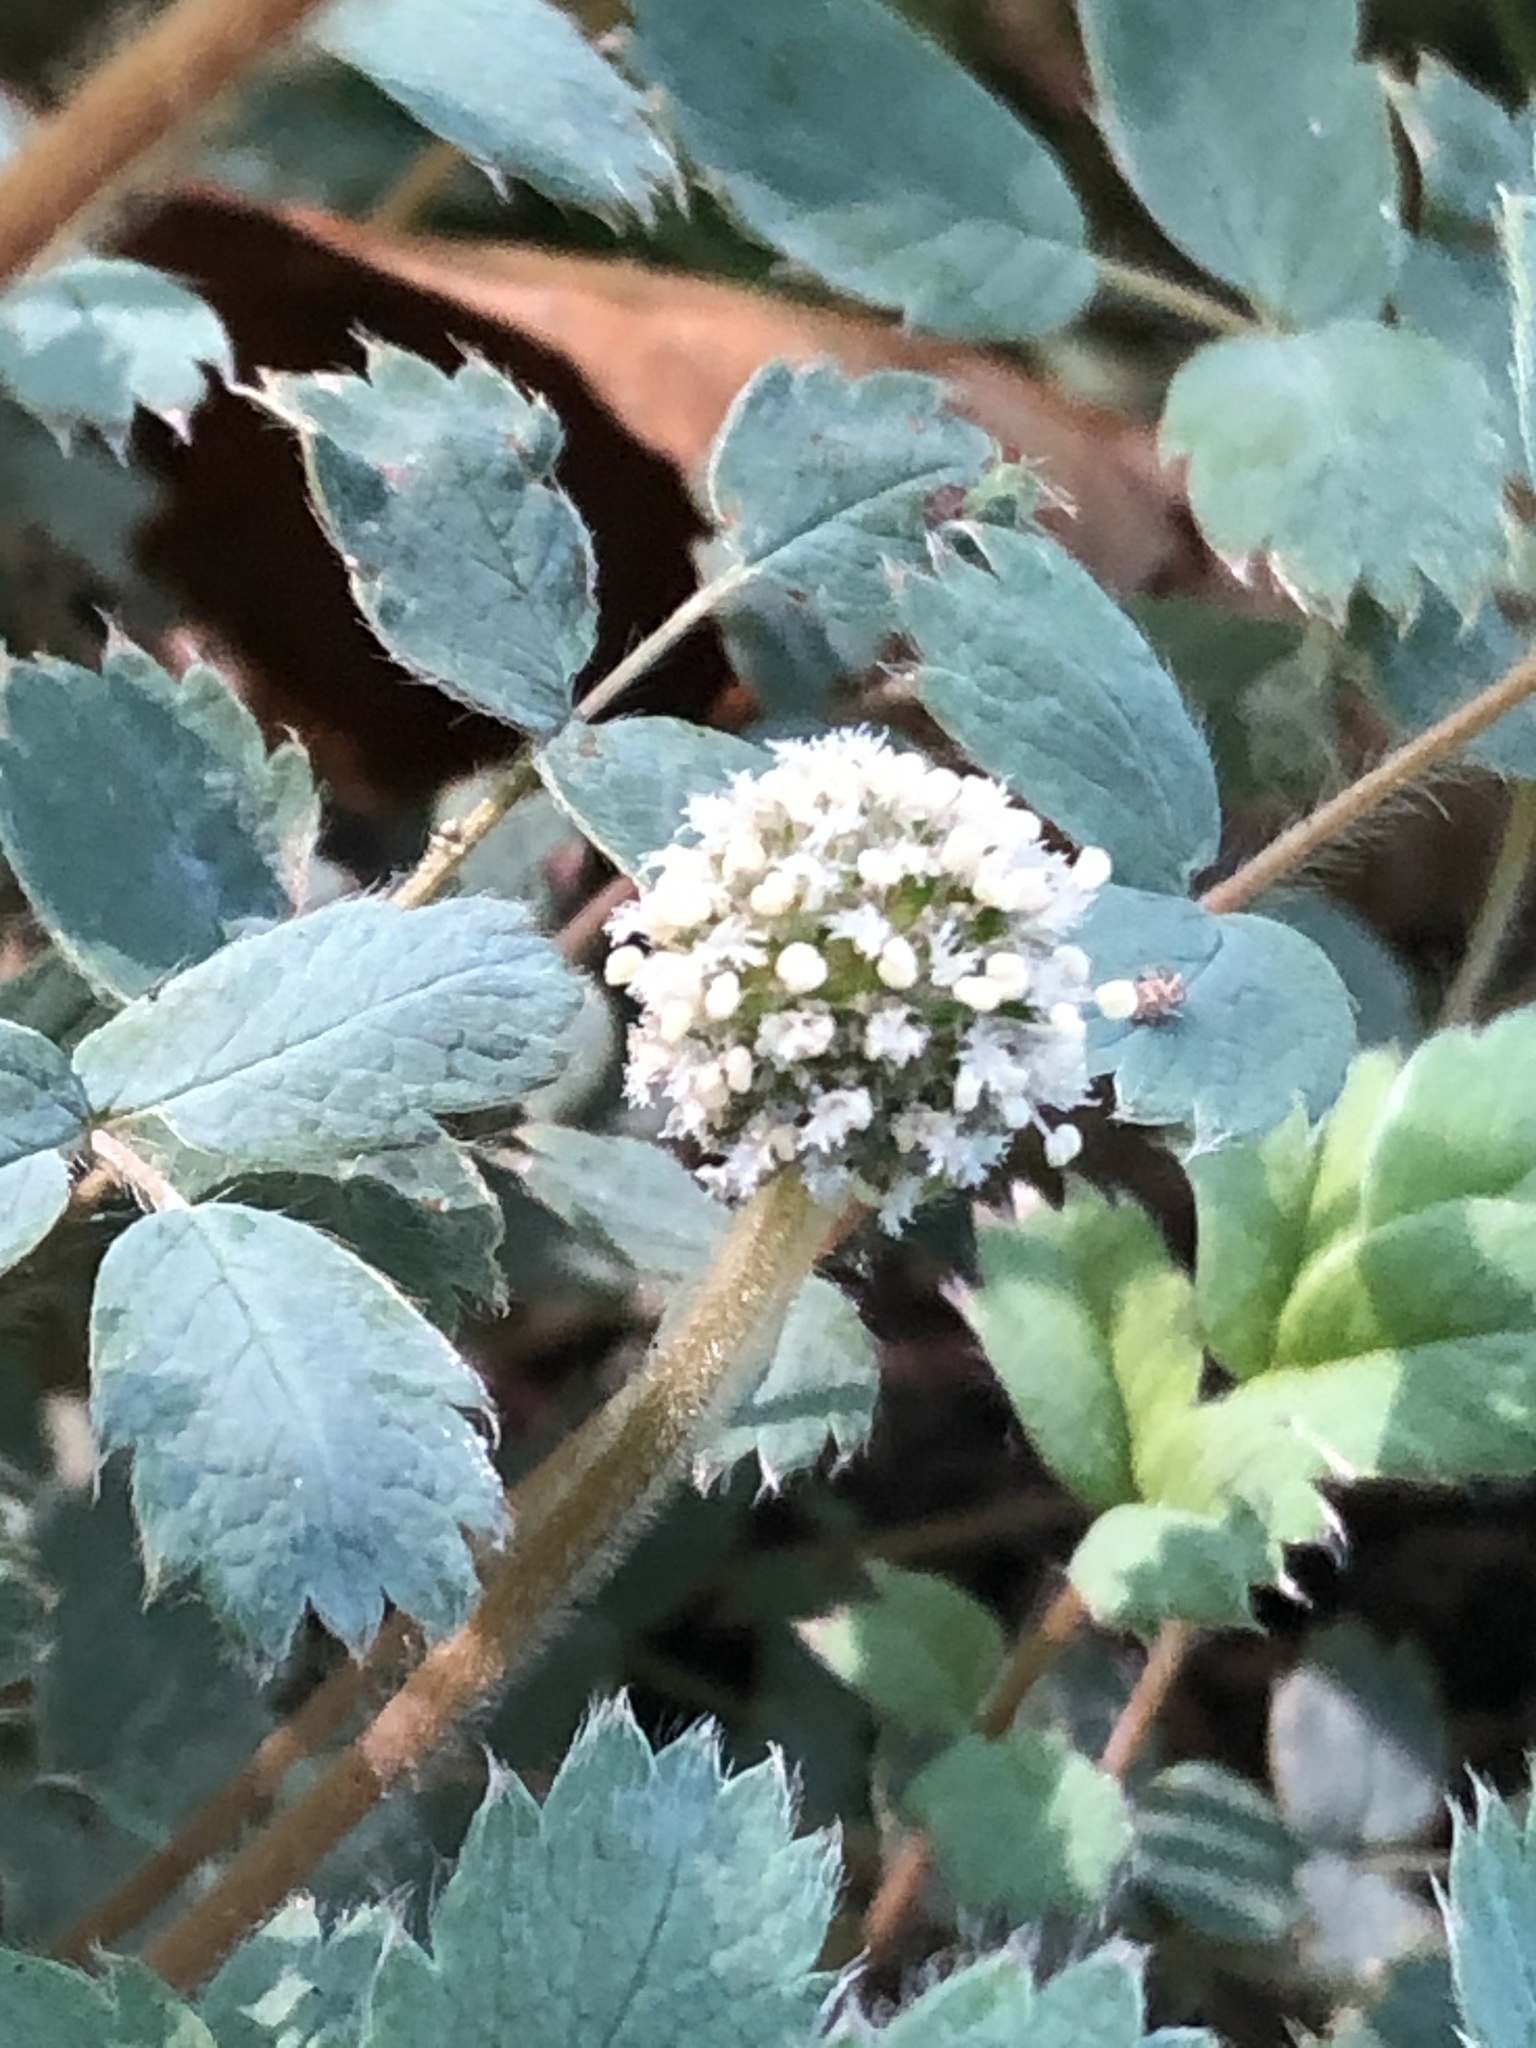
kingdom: Plantae
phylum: Tracheophyta
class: Magnoliopsida
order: Rosales
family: Rosaceae
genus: Acaena
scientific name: Acaena saccaticupula
